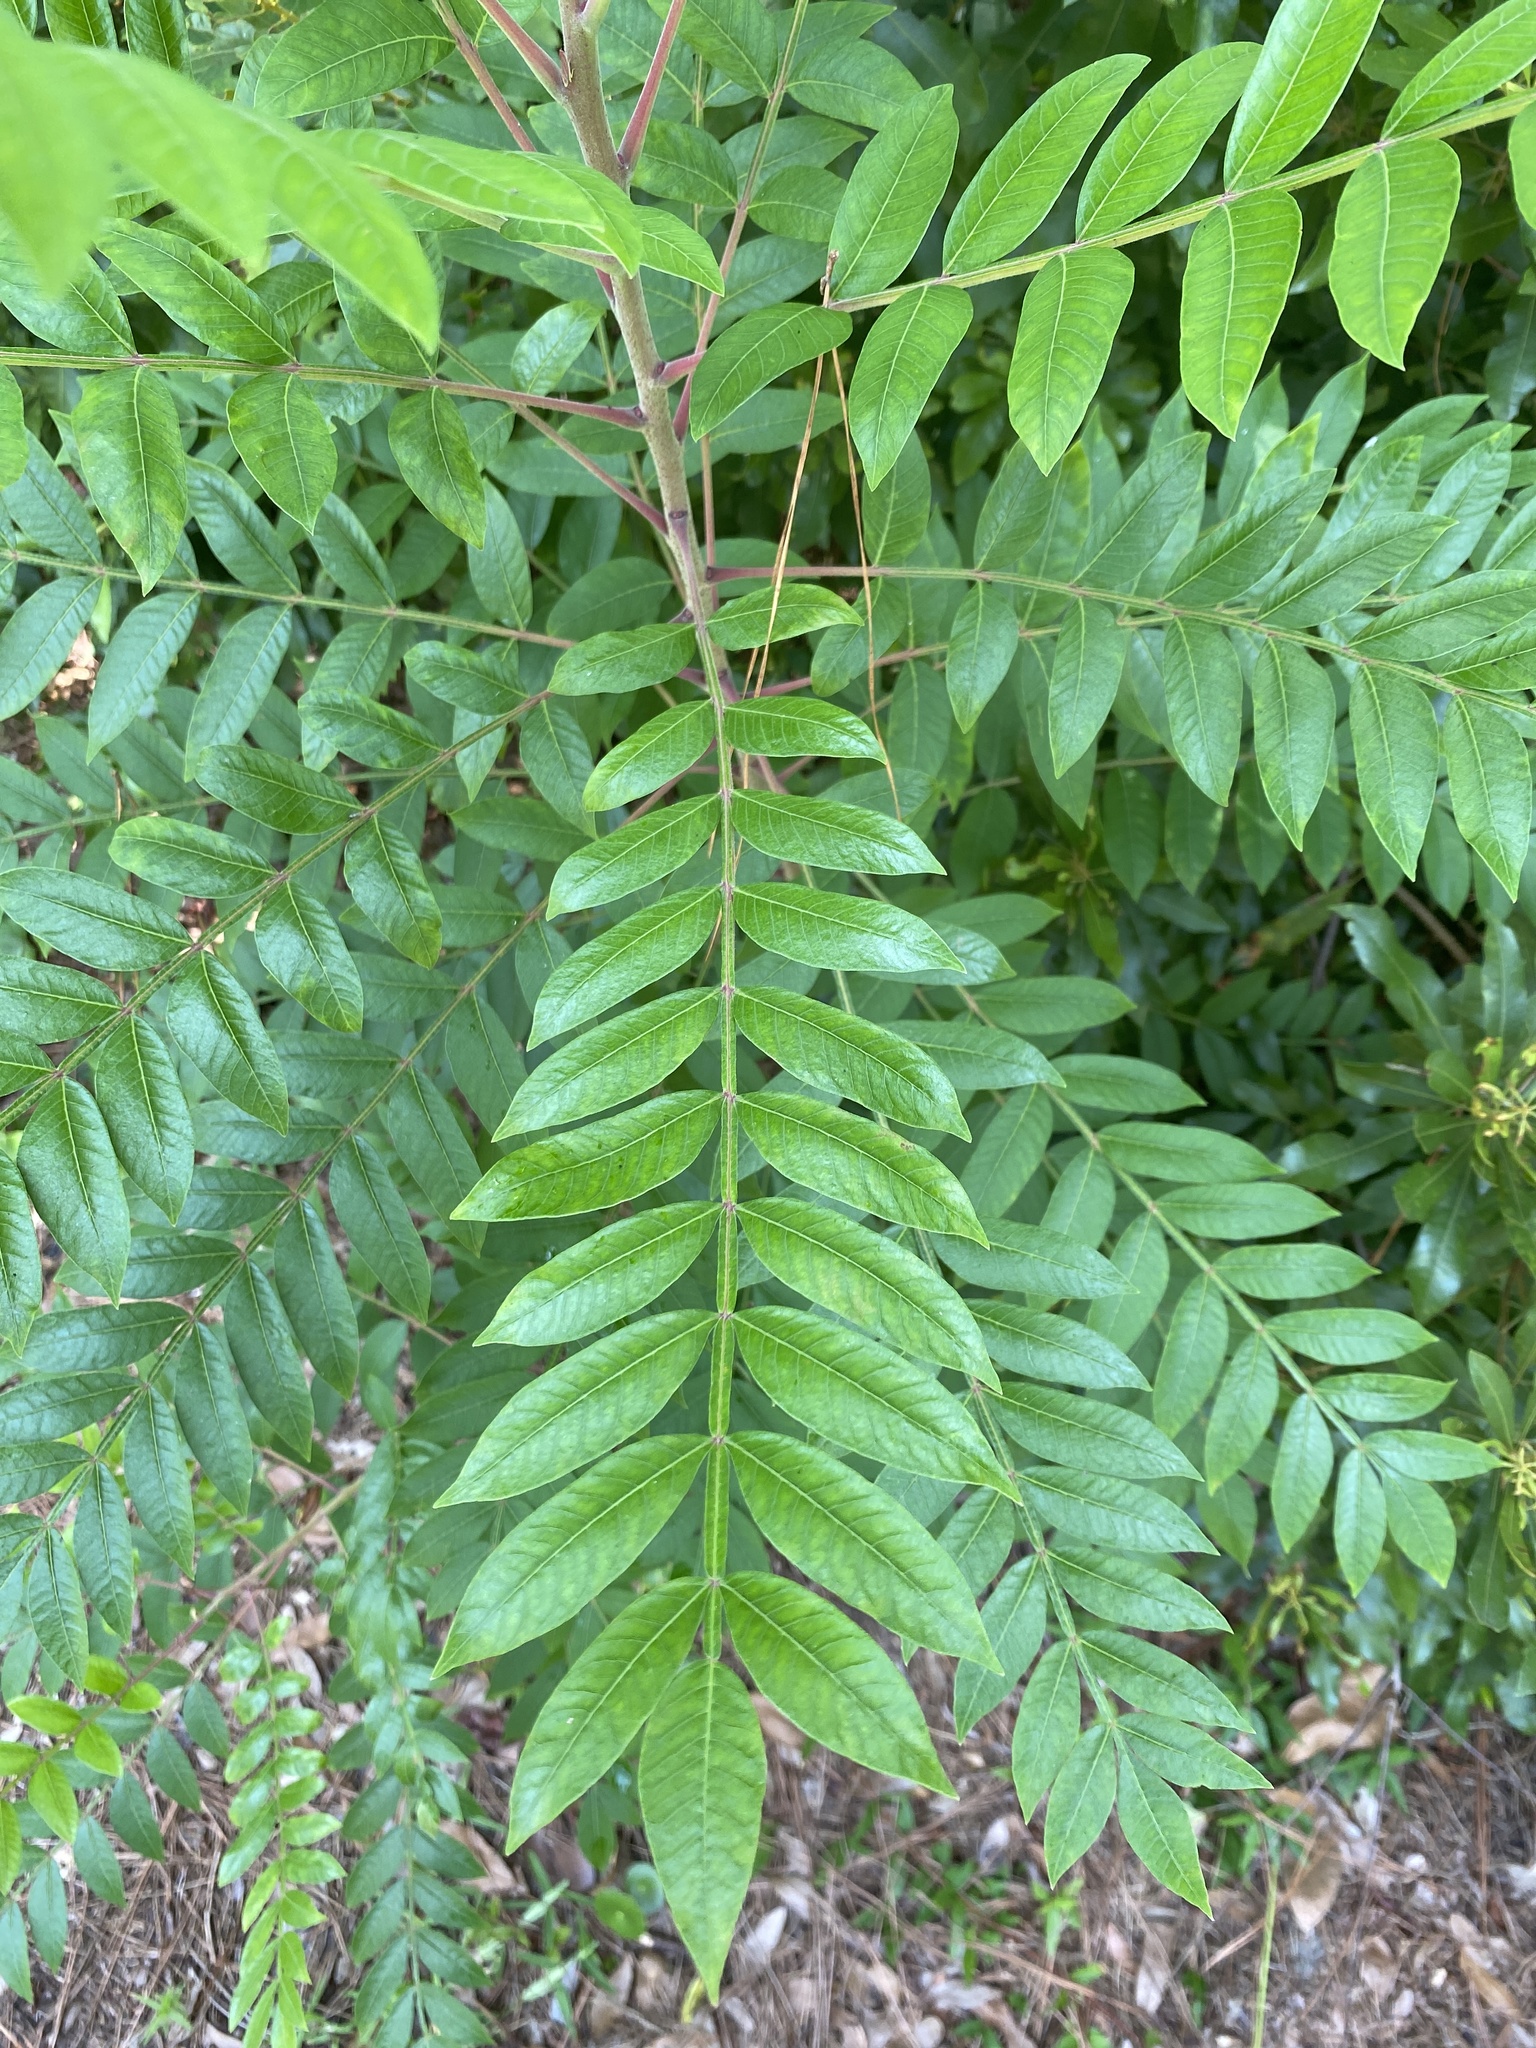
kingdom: Plantae
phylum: Tracheophyta
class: Magnoliopsida
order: Sapindales
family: Anacardiaceae
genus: Rhus
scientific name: Rhus copallina
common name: Shining sumac
